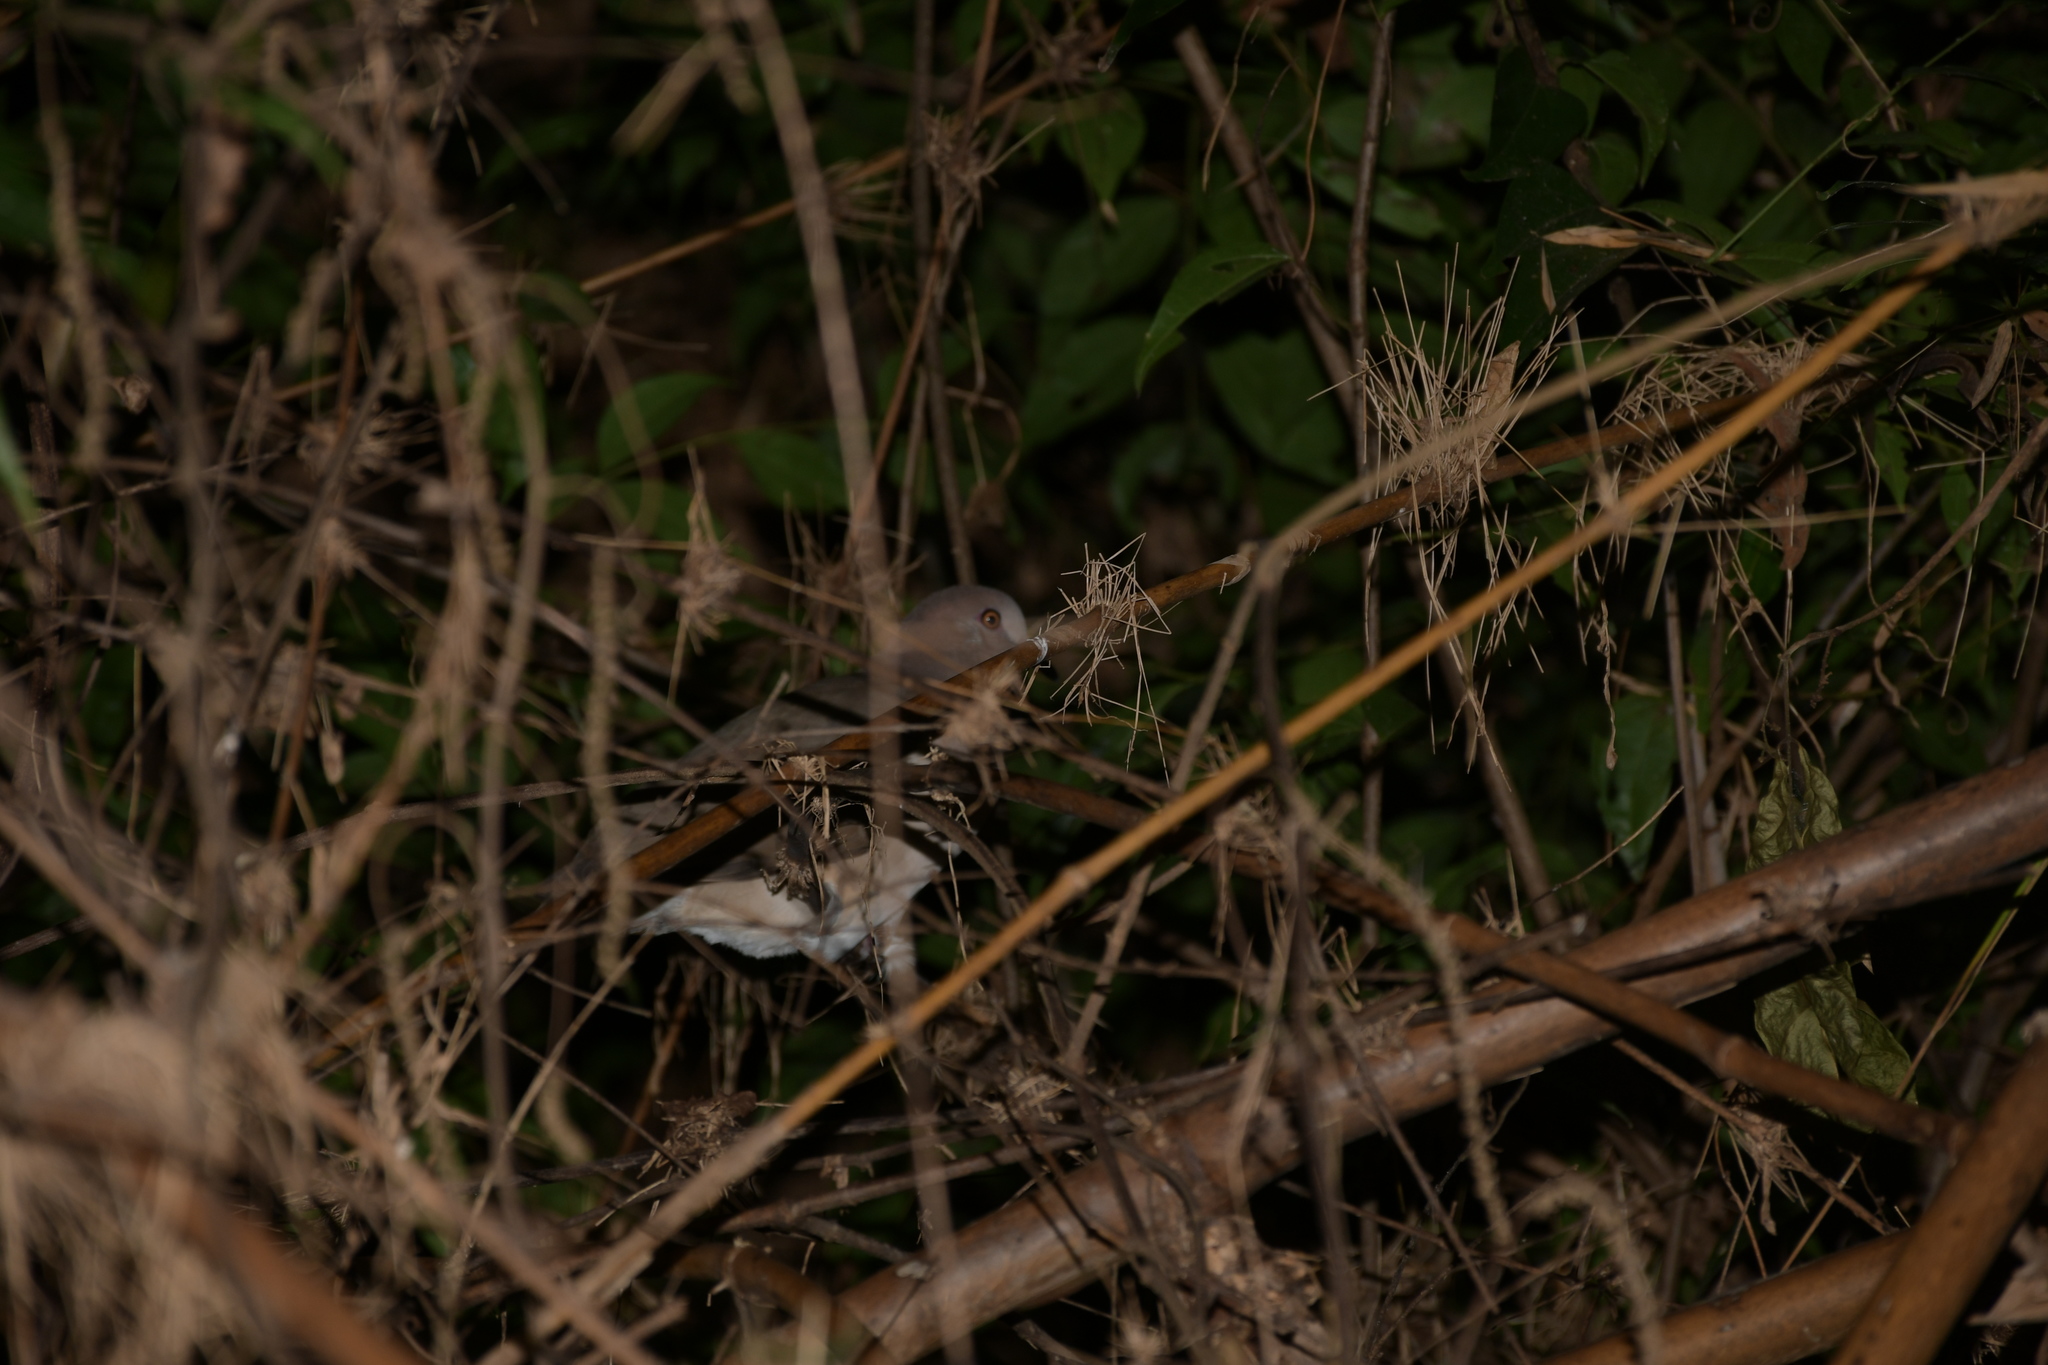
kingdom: Animalia
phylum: Chordata
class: Aves
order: Columbiformes
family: Columbidae
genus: Leptotila
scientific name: Leptotila verreauxi
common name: White-tipped dove
